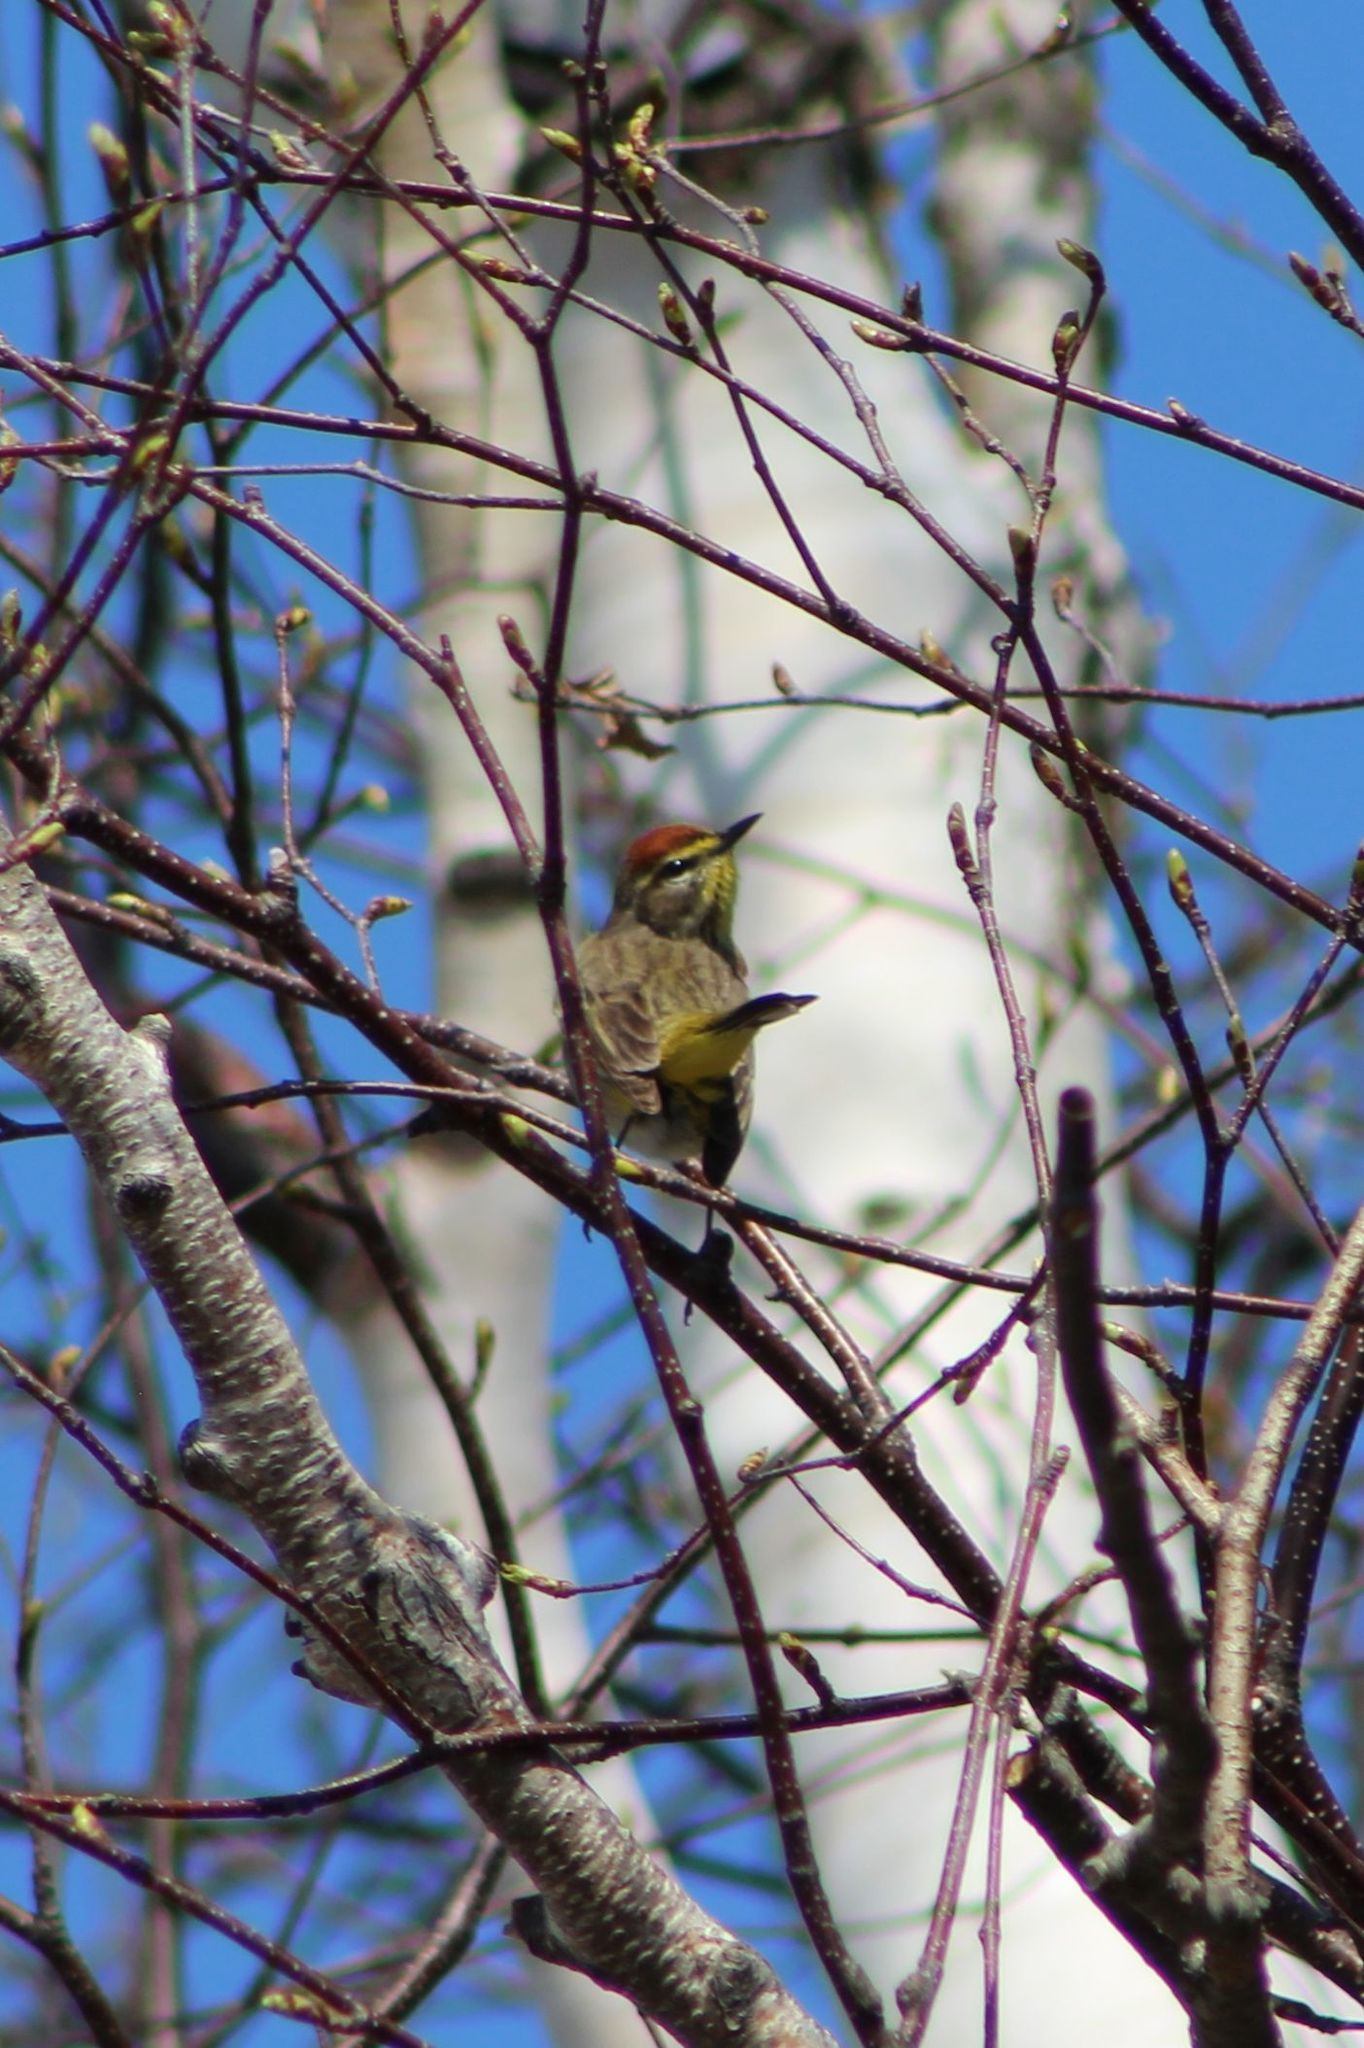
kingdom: Animalia
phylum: Chordata
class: Aves
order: Passeriformes
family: Parulidae
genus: Setophaga
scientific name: Setophaga palmarum
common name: Palm warbler
